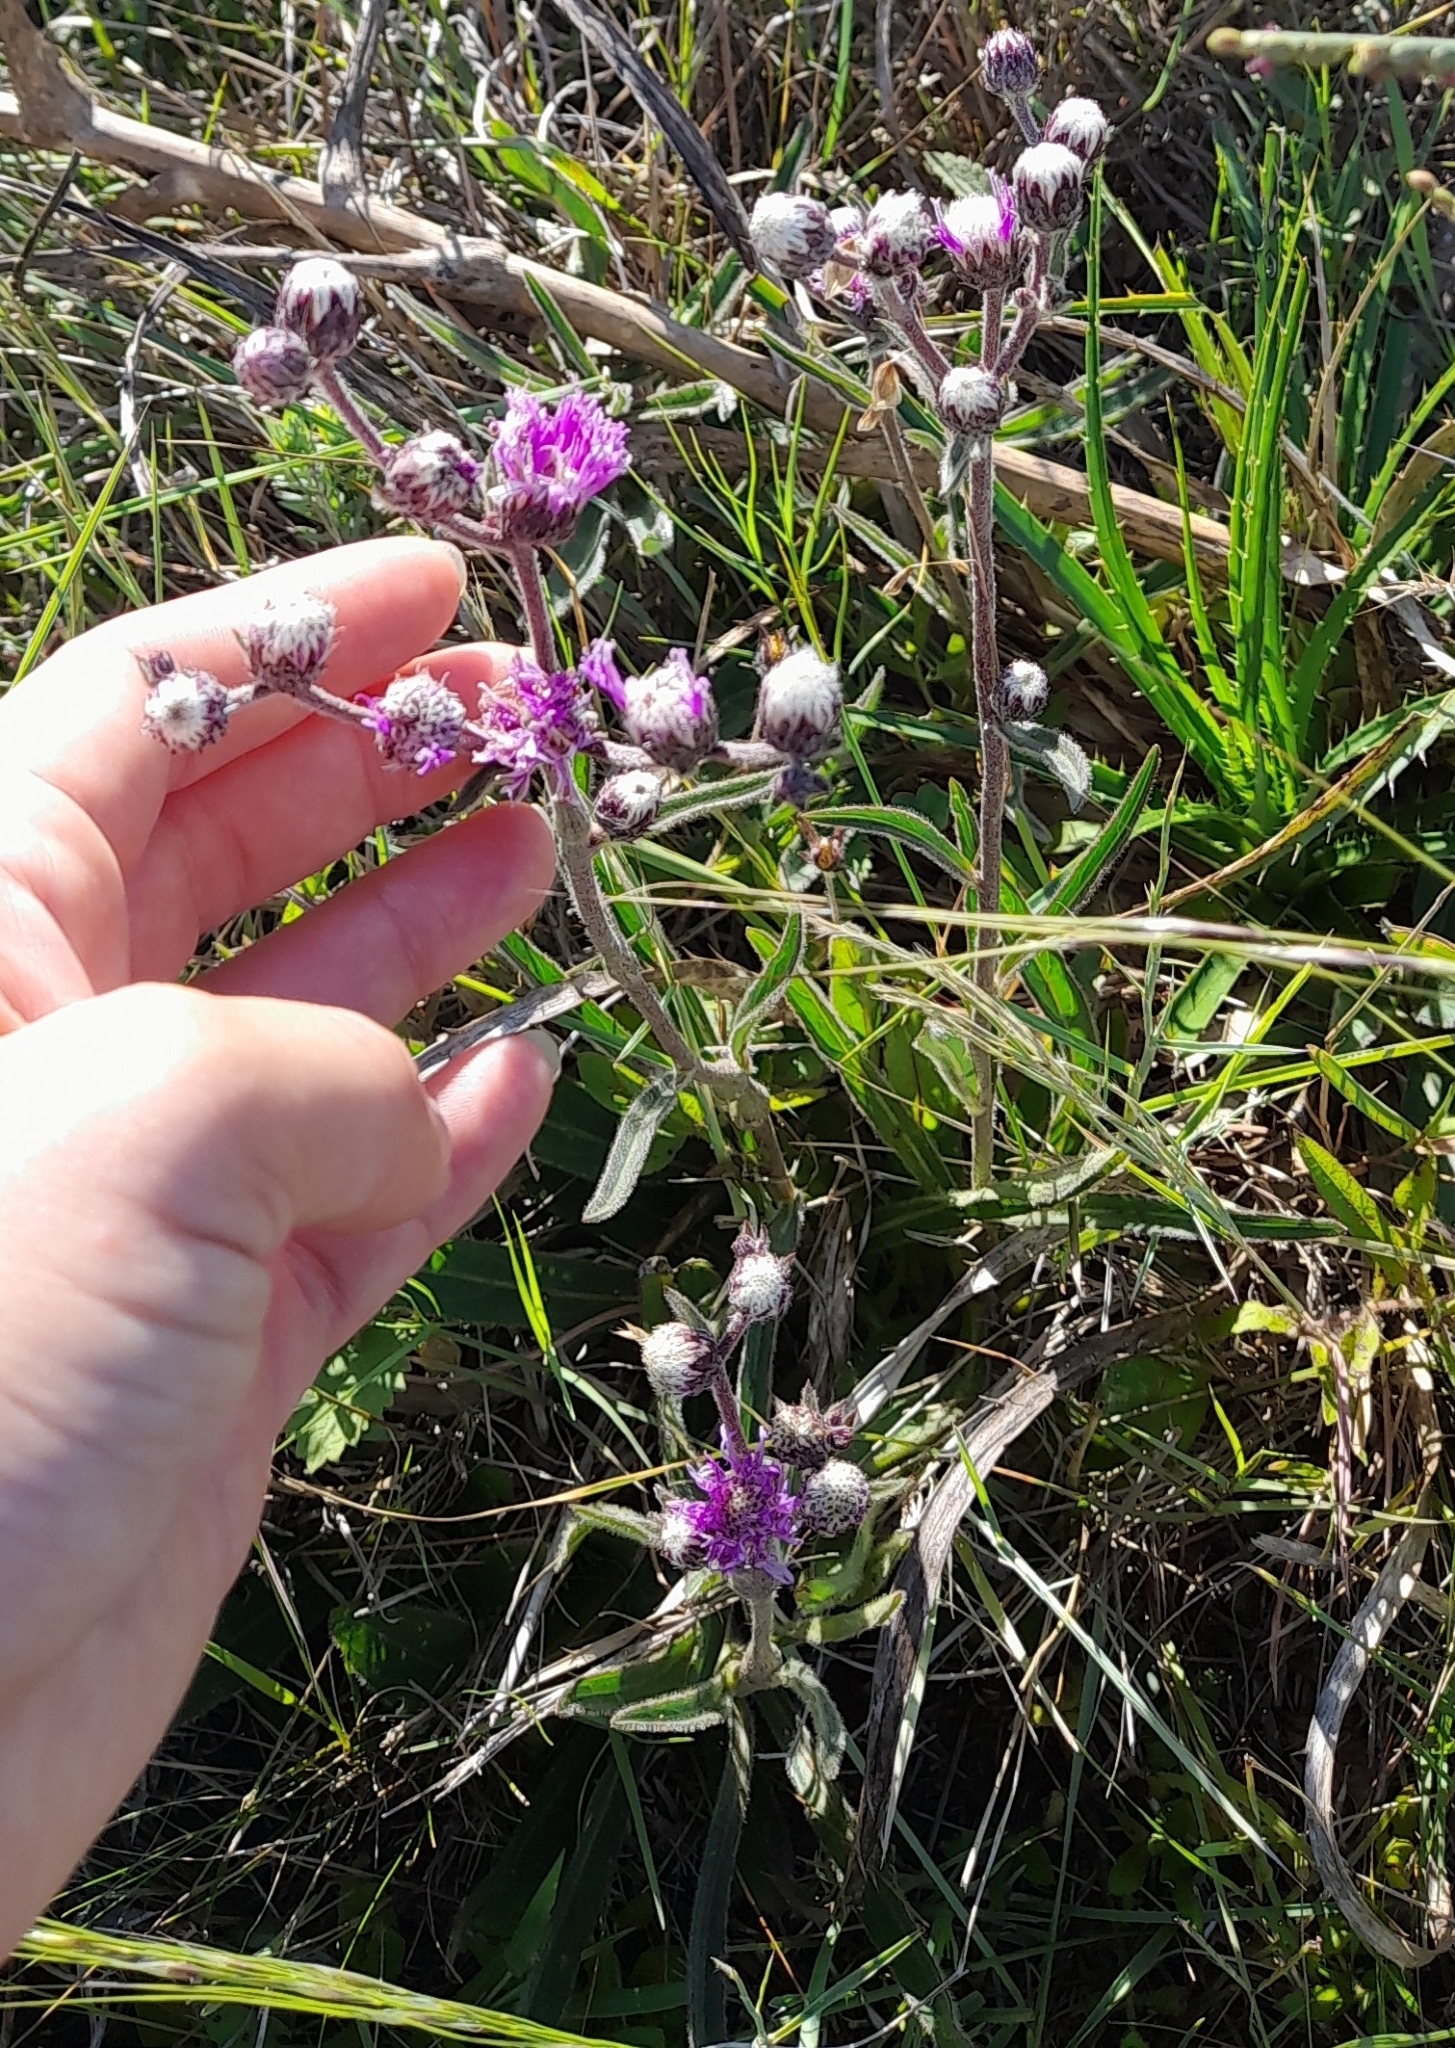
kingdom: Plantae
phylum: Tracheophyta
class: Magnoliopsida
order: Asterales
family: Asteraceae
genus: Chrysolaena
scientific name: Chrysolaena flexuosa
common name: Zig-zag vernonia
